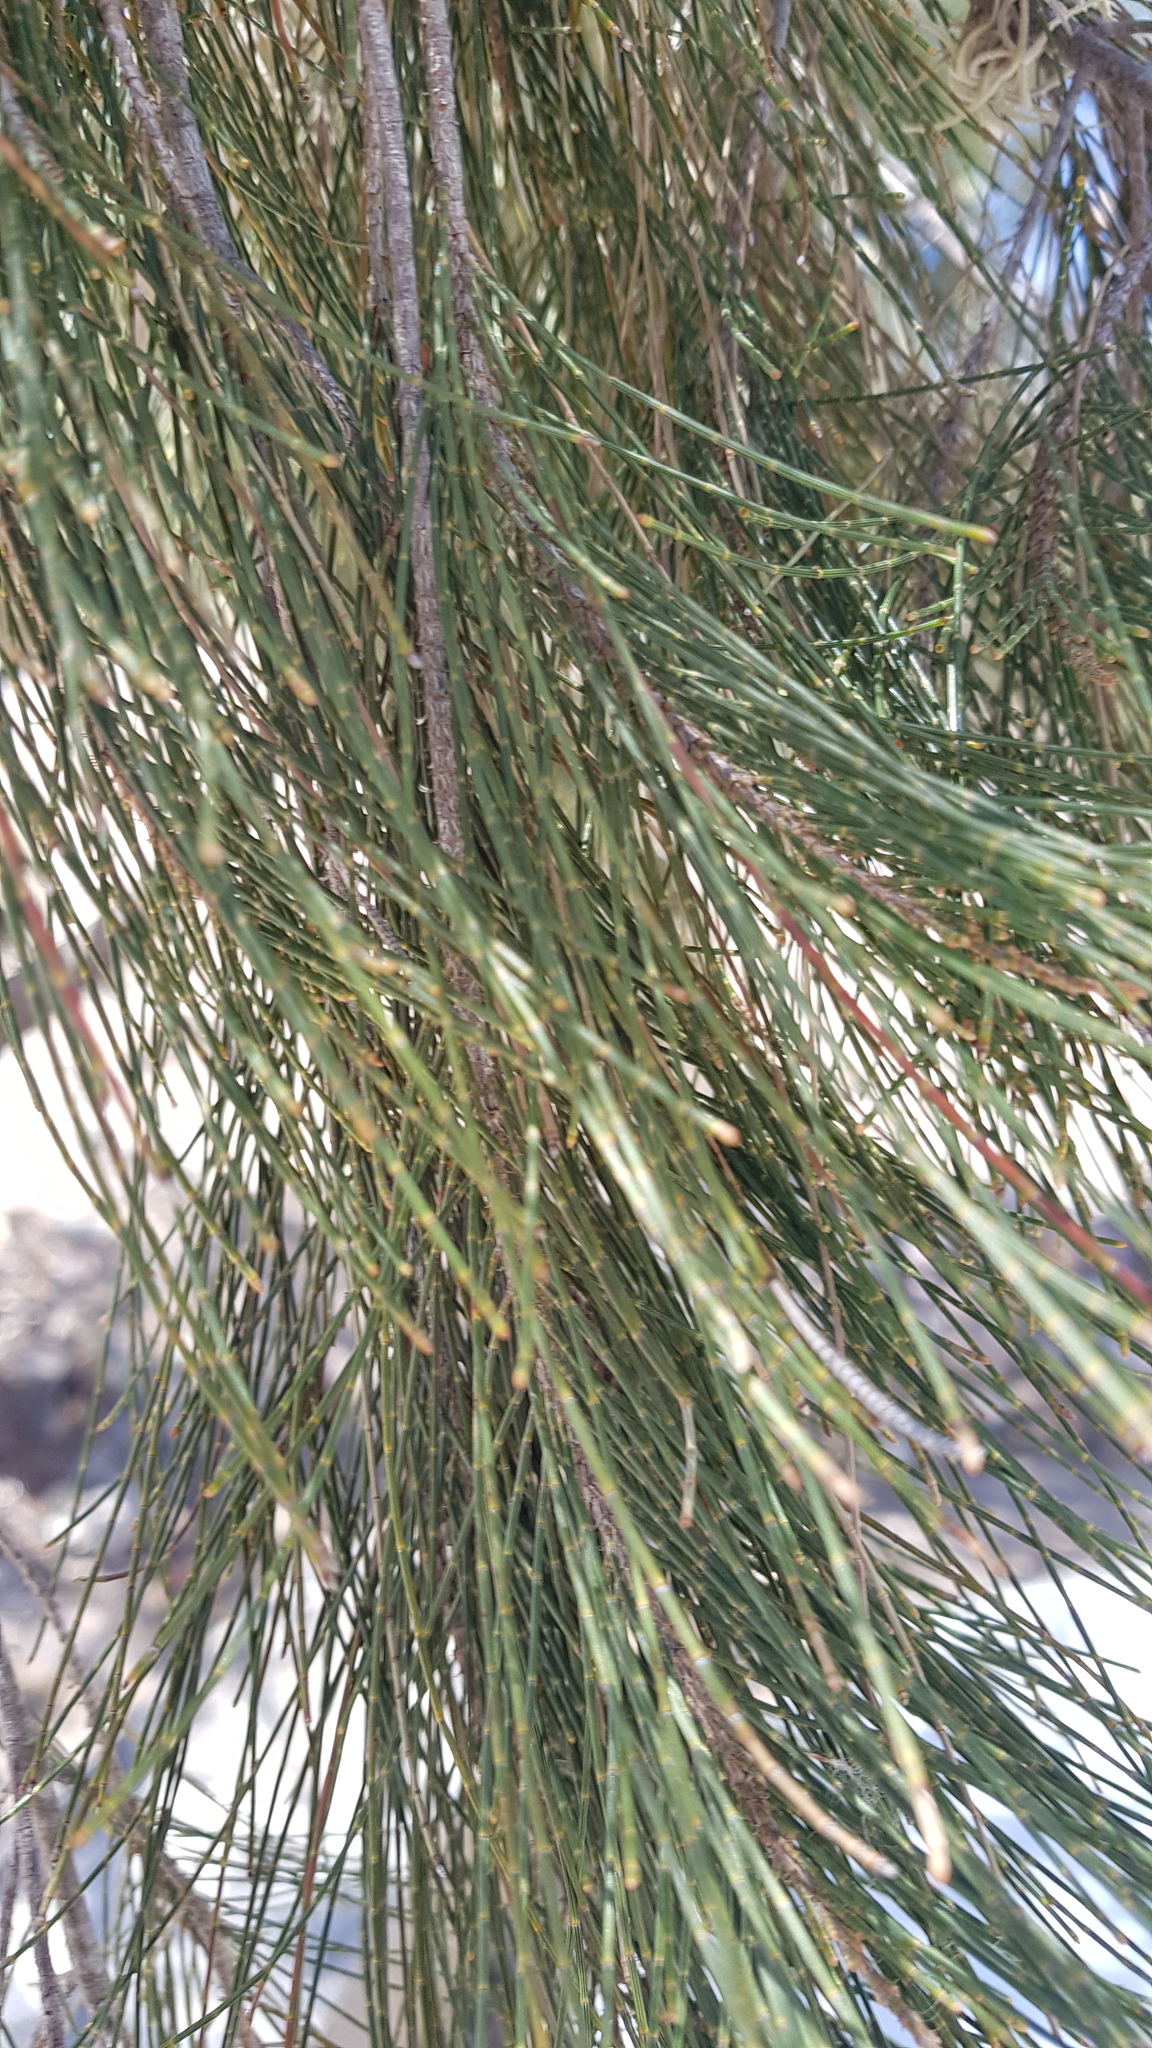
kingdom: Plantae
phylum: Tracheophyta
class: Magnoliopsida
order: Fagales
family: Casuarinaceae
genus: Casuarina
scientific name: Casuarina equisetifolia
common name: Beach sheoak
